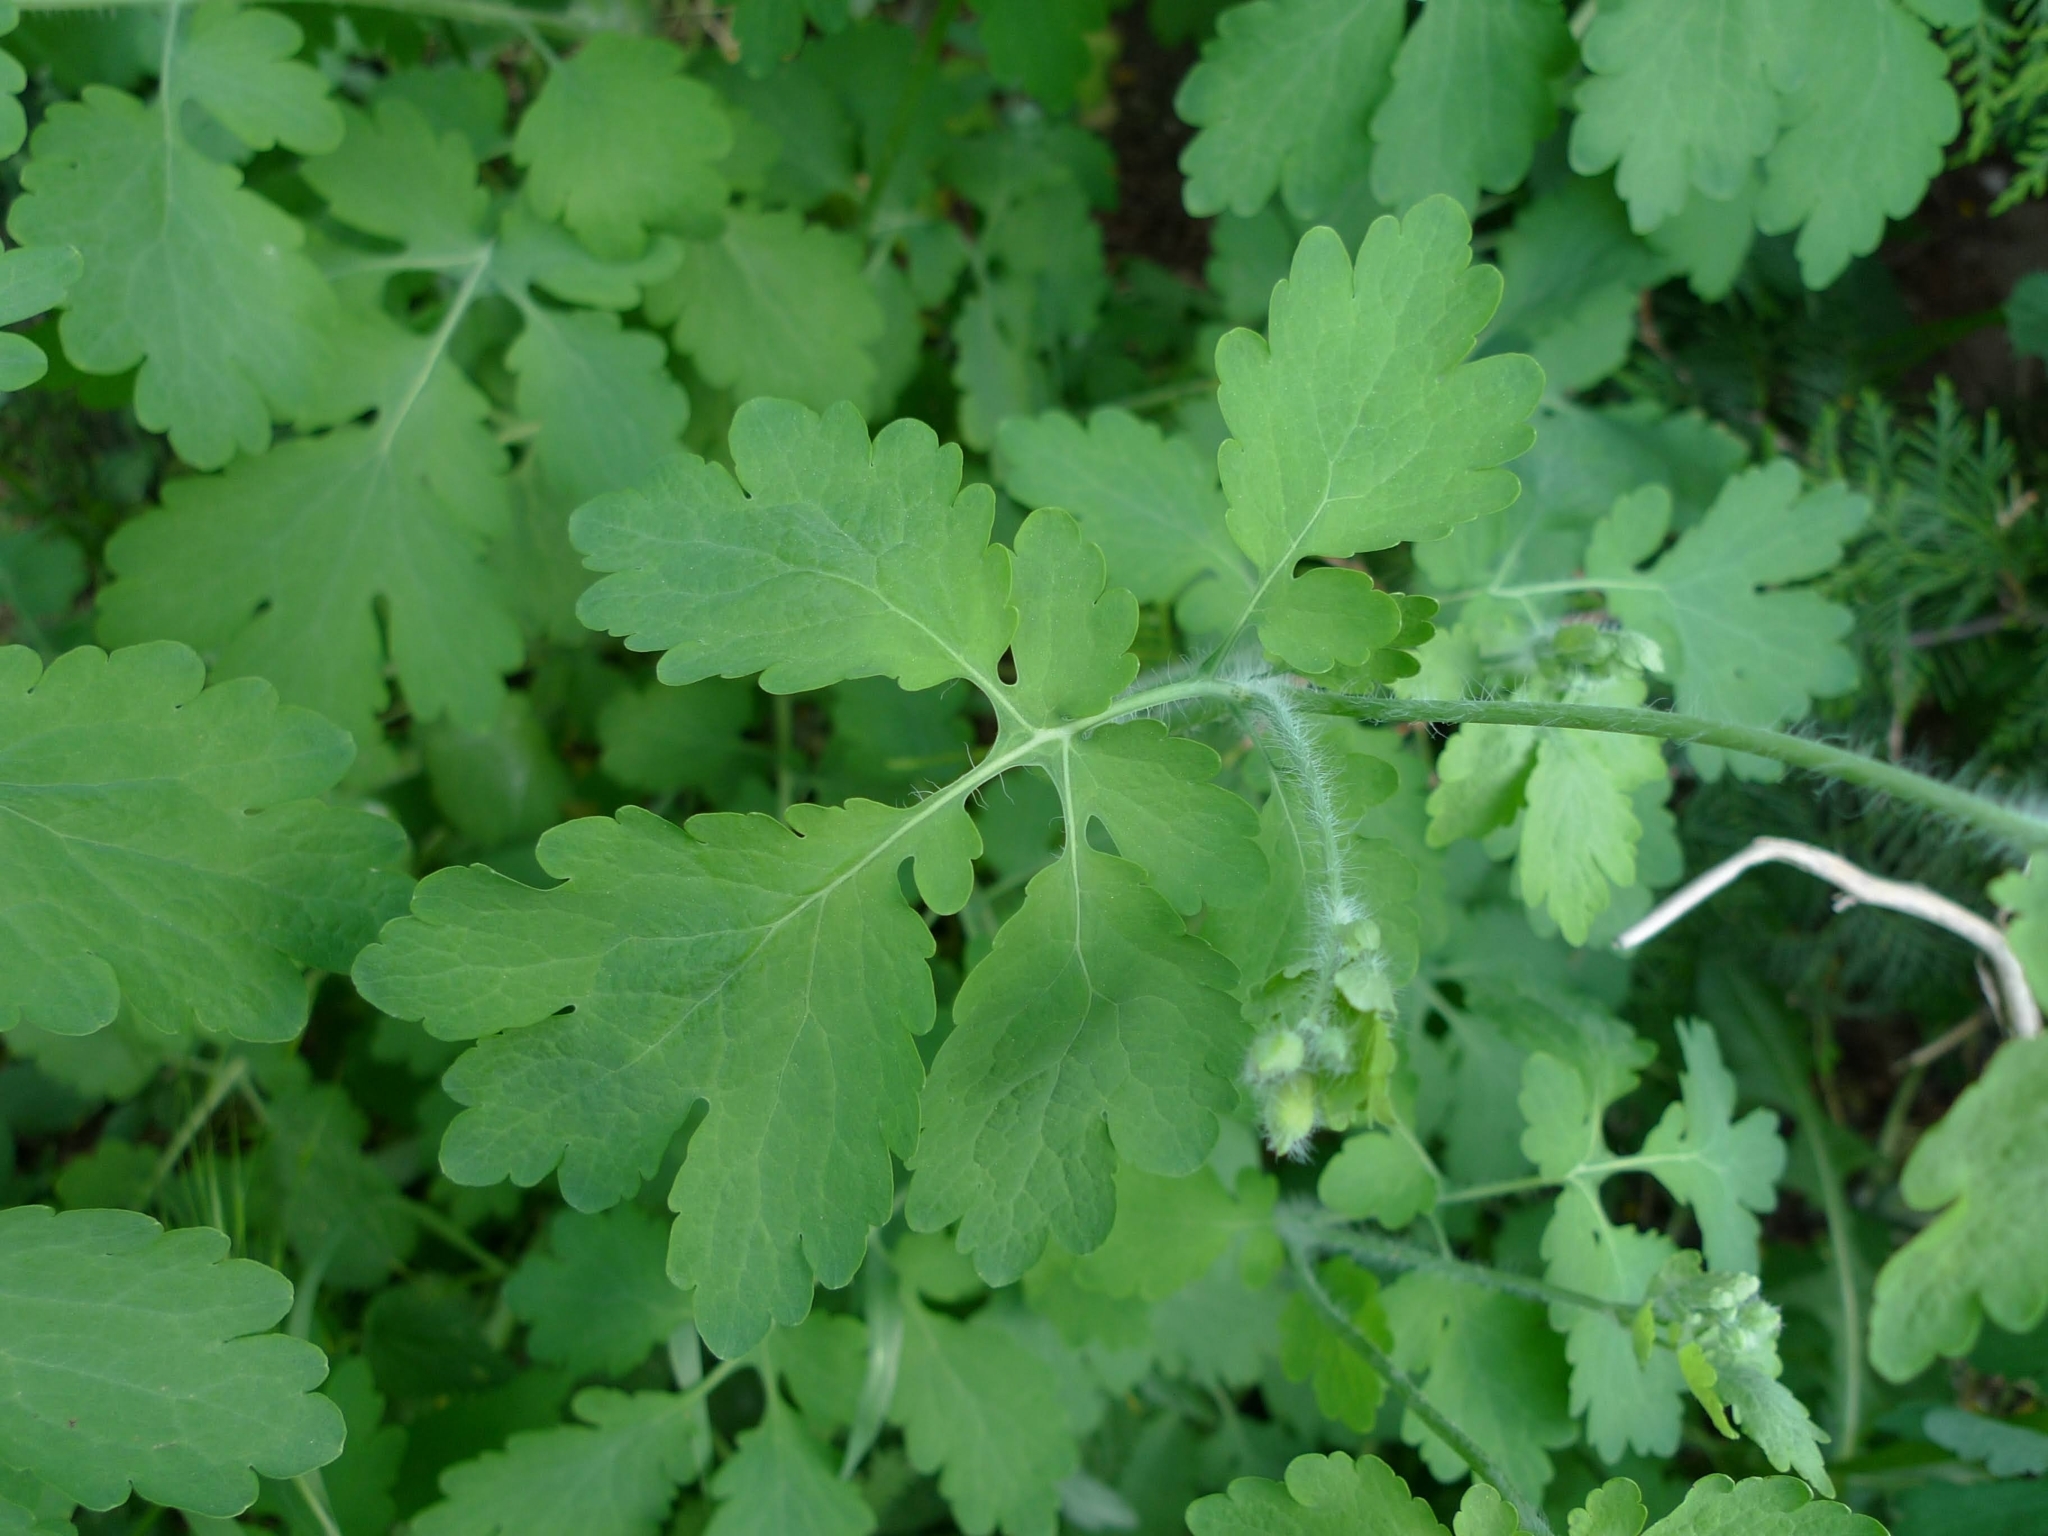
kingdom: Plantae
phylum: Tracheophyta
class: Magnoliopsida
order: Ranunculales
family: Papaveraceae
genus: Chelidonium
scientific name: Chelidonium majus
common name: Greater celandine
